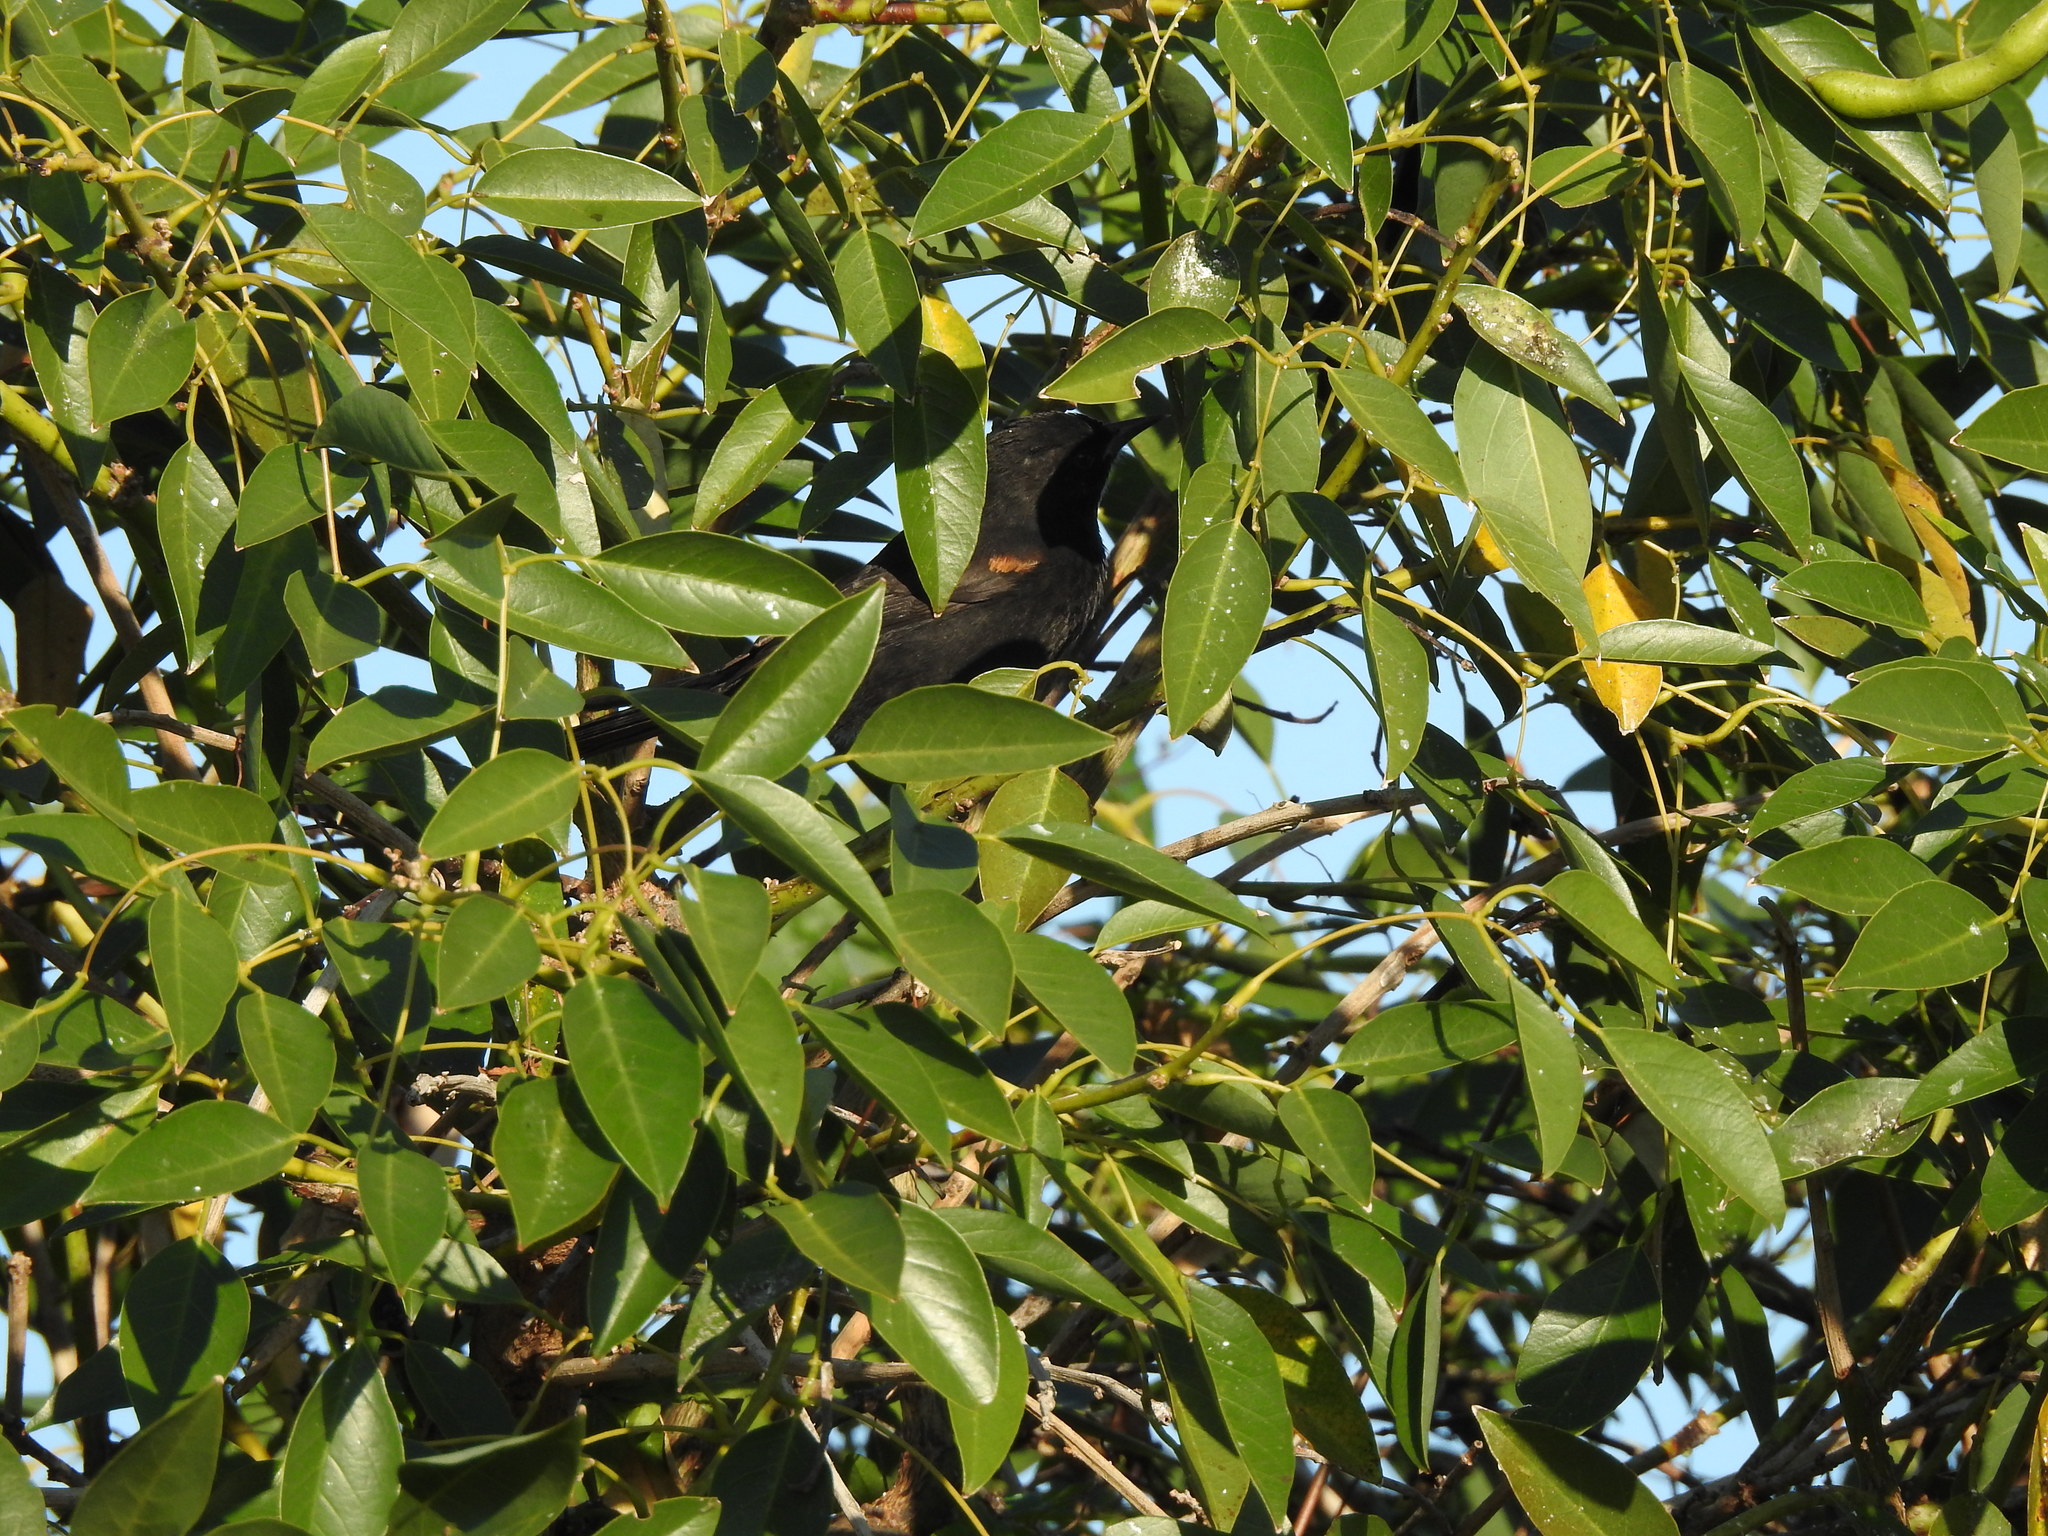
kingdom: Animalia
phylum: Chordata
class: Aves
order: Passeriformes
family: Icteridae
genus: Icterus
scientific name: Icterus cayanensis
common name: Epaulet oriole
